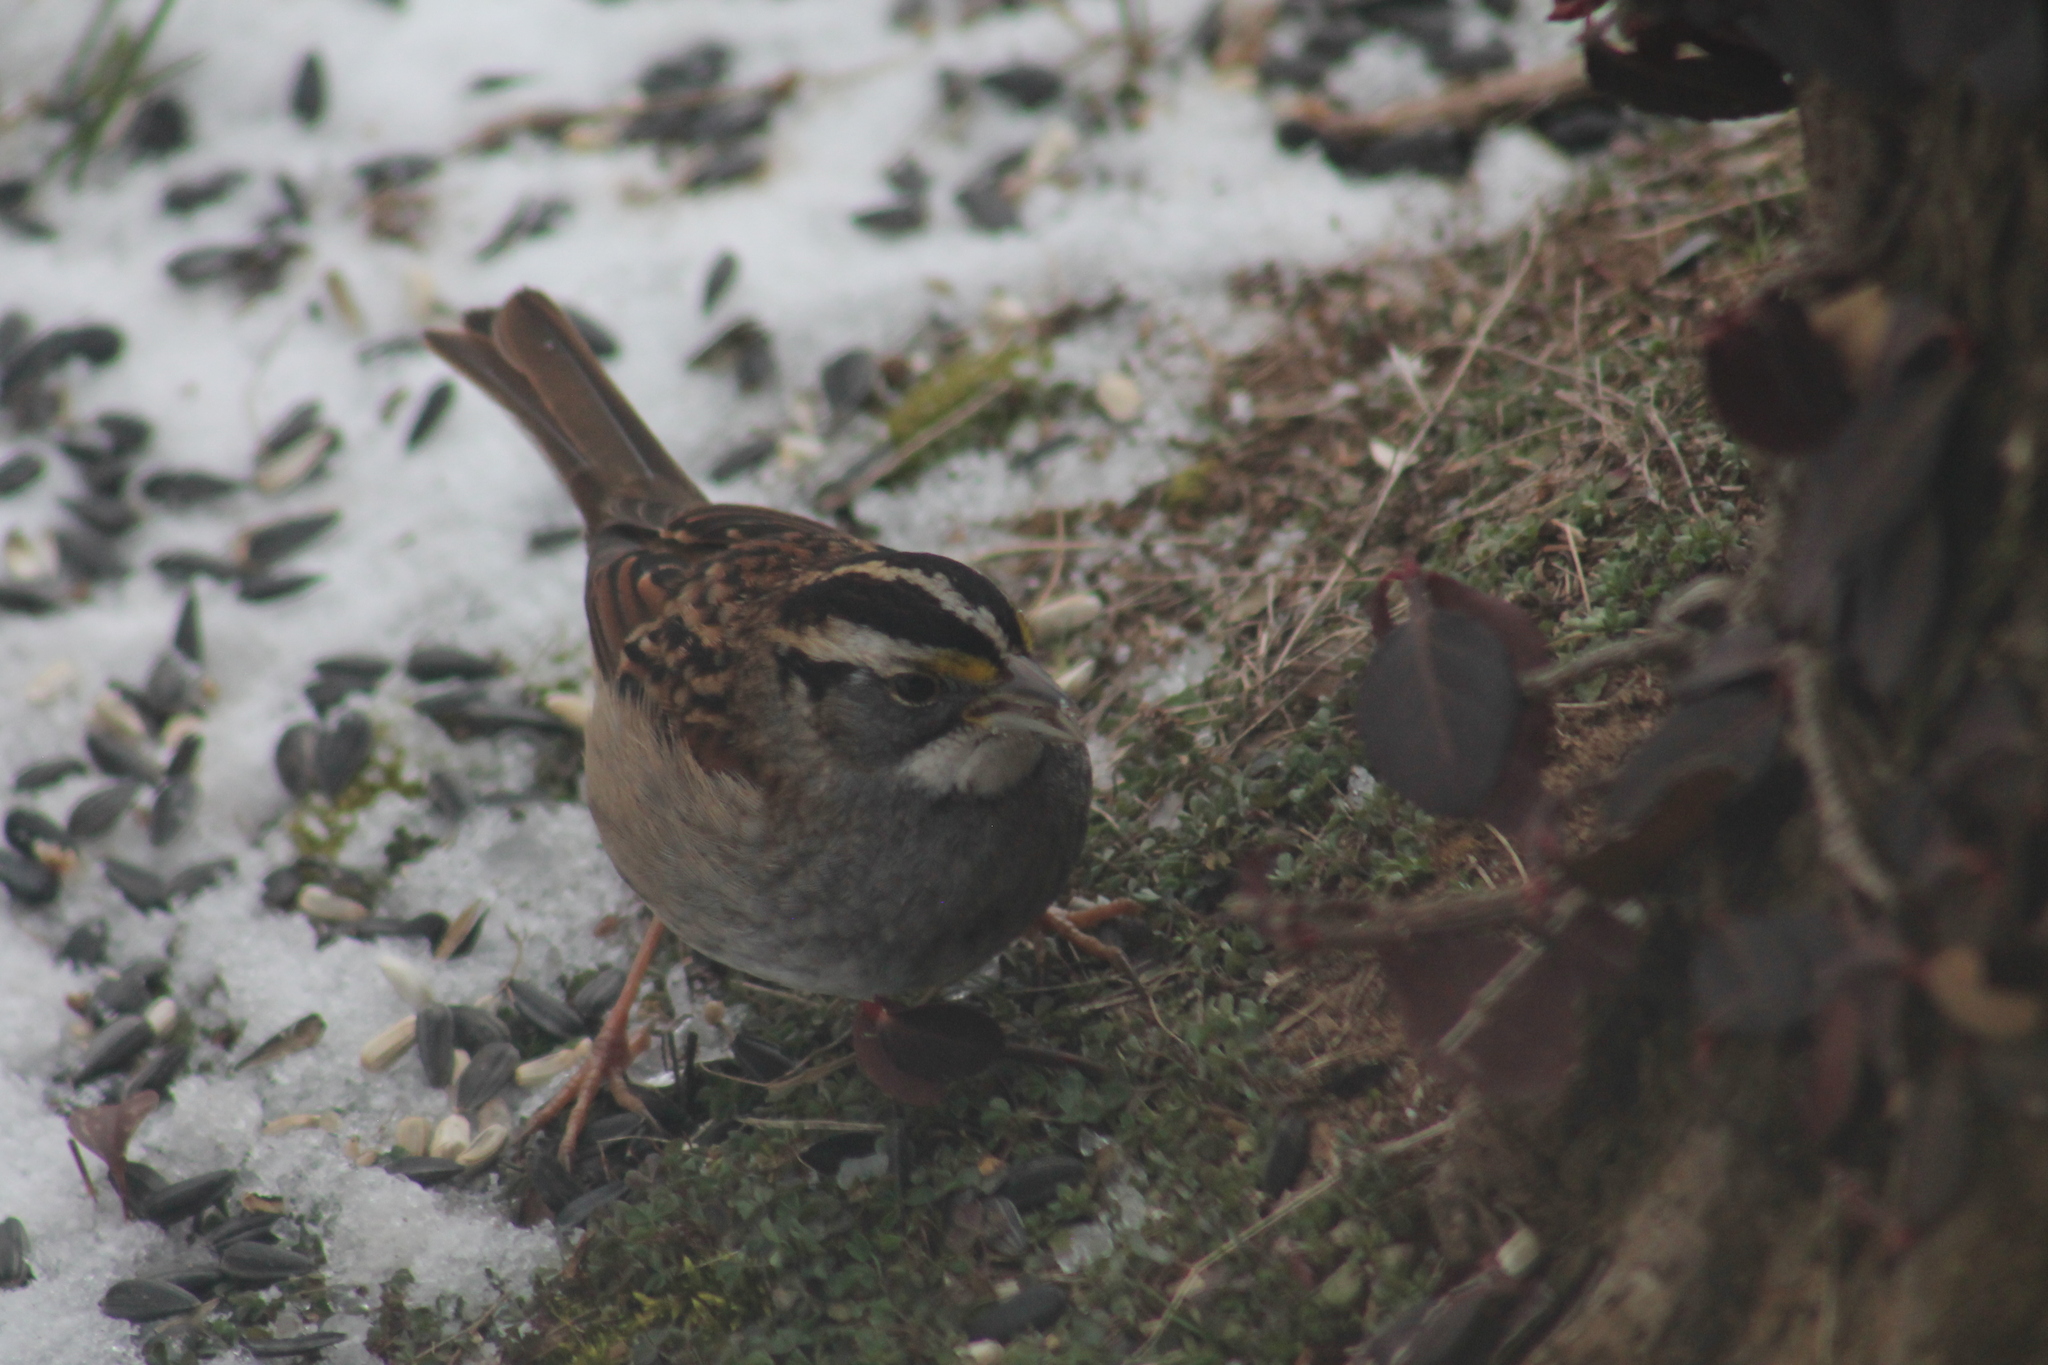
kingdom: Animalia
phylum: Chordata
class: Aves
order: Passeriformes
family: Passerellidae
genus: Zonotrichia
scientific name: Zonotrichia albicollis
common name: White-throated sparrow
